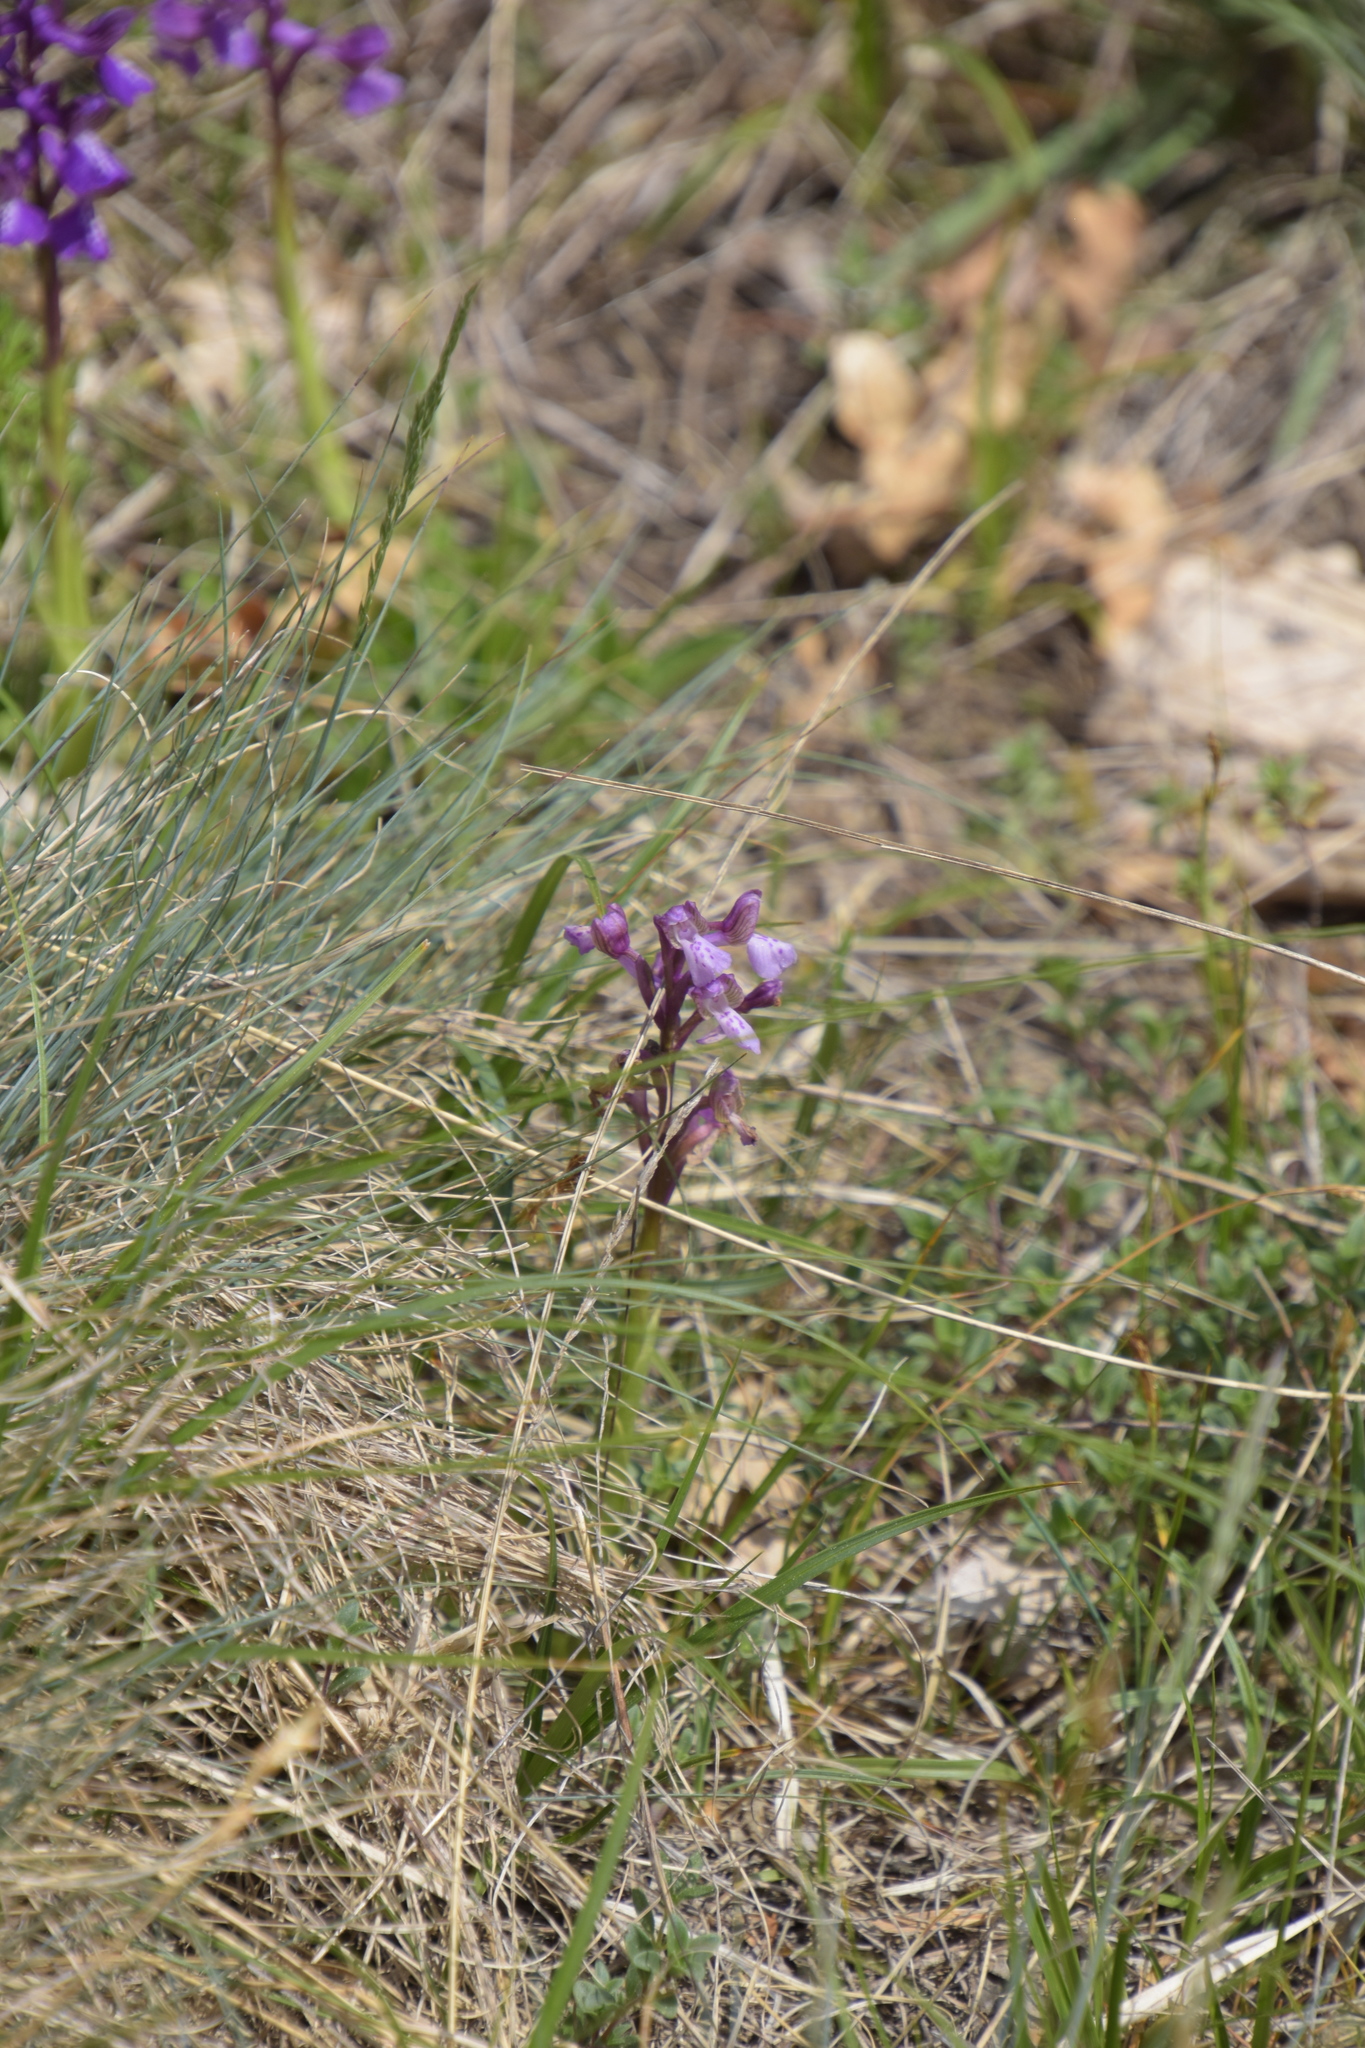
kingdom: Plantae
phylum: Tracheophyta
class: Liliopsida
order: Asparagales
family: Orchidaceae
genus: Anacamptis
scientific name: Anacamptis morio
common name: Green-winged orchid
